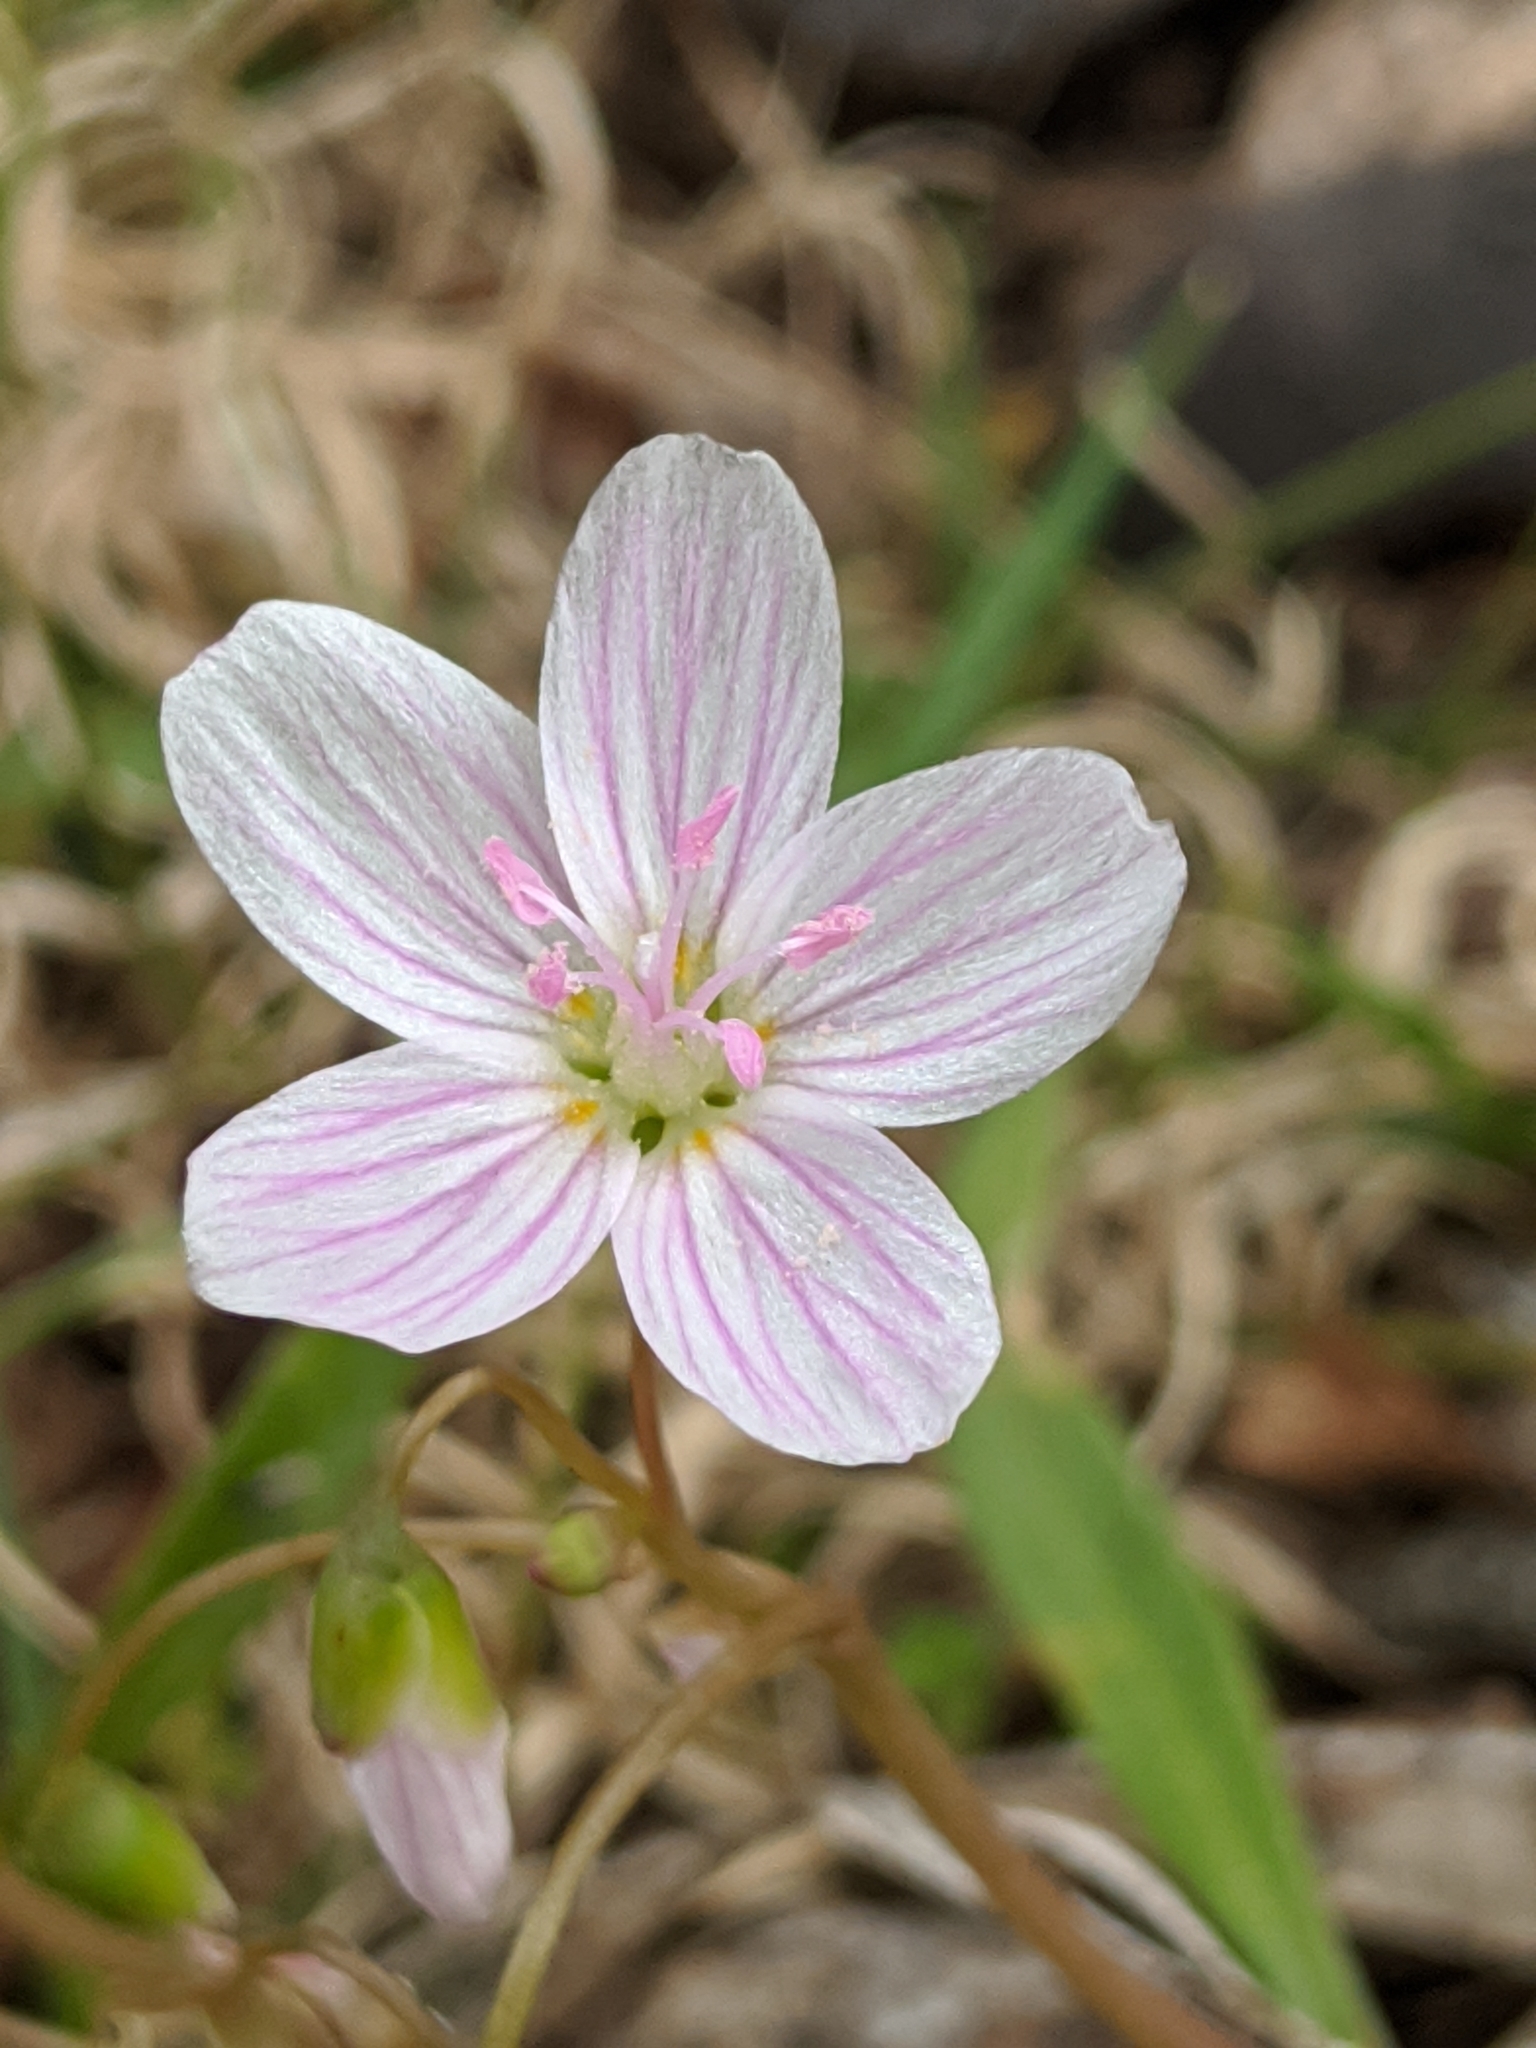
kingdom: Plantae
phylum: Tracheophyta
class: Magnoliopsida
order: Caryophyllales
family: Montiaceae
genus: Claytonia
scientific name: Claytonia virginica
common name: Virginia springbeauty
